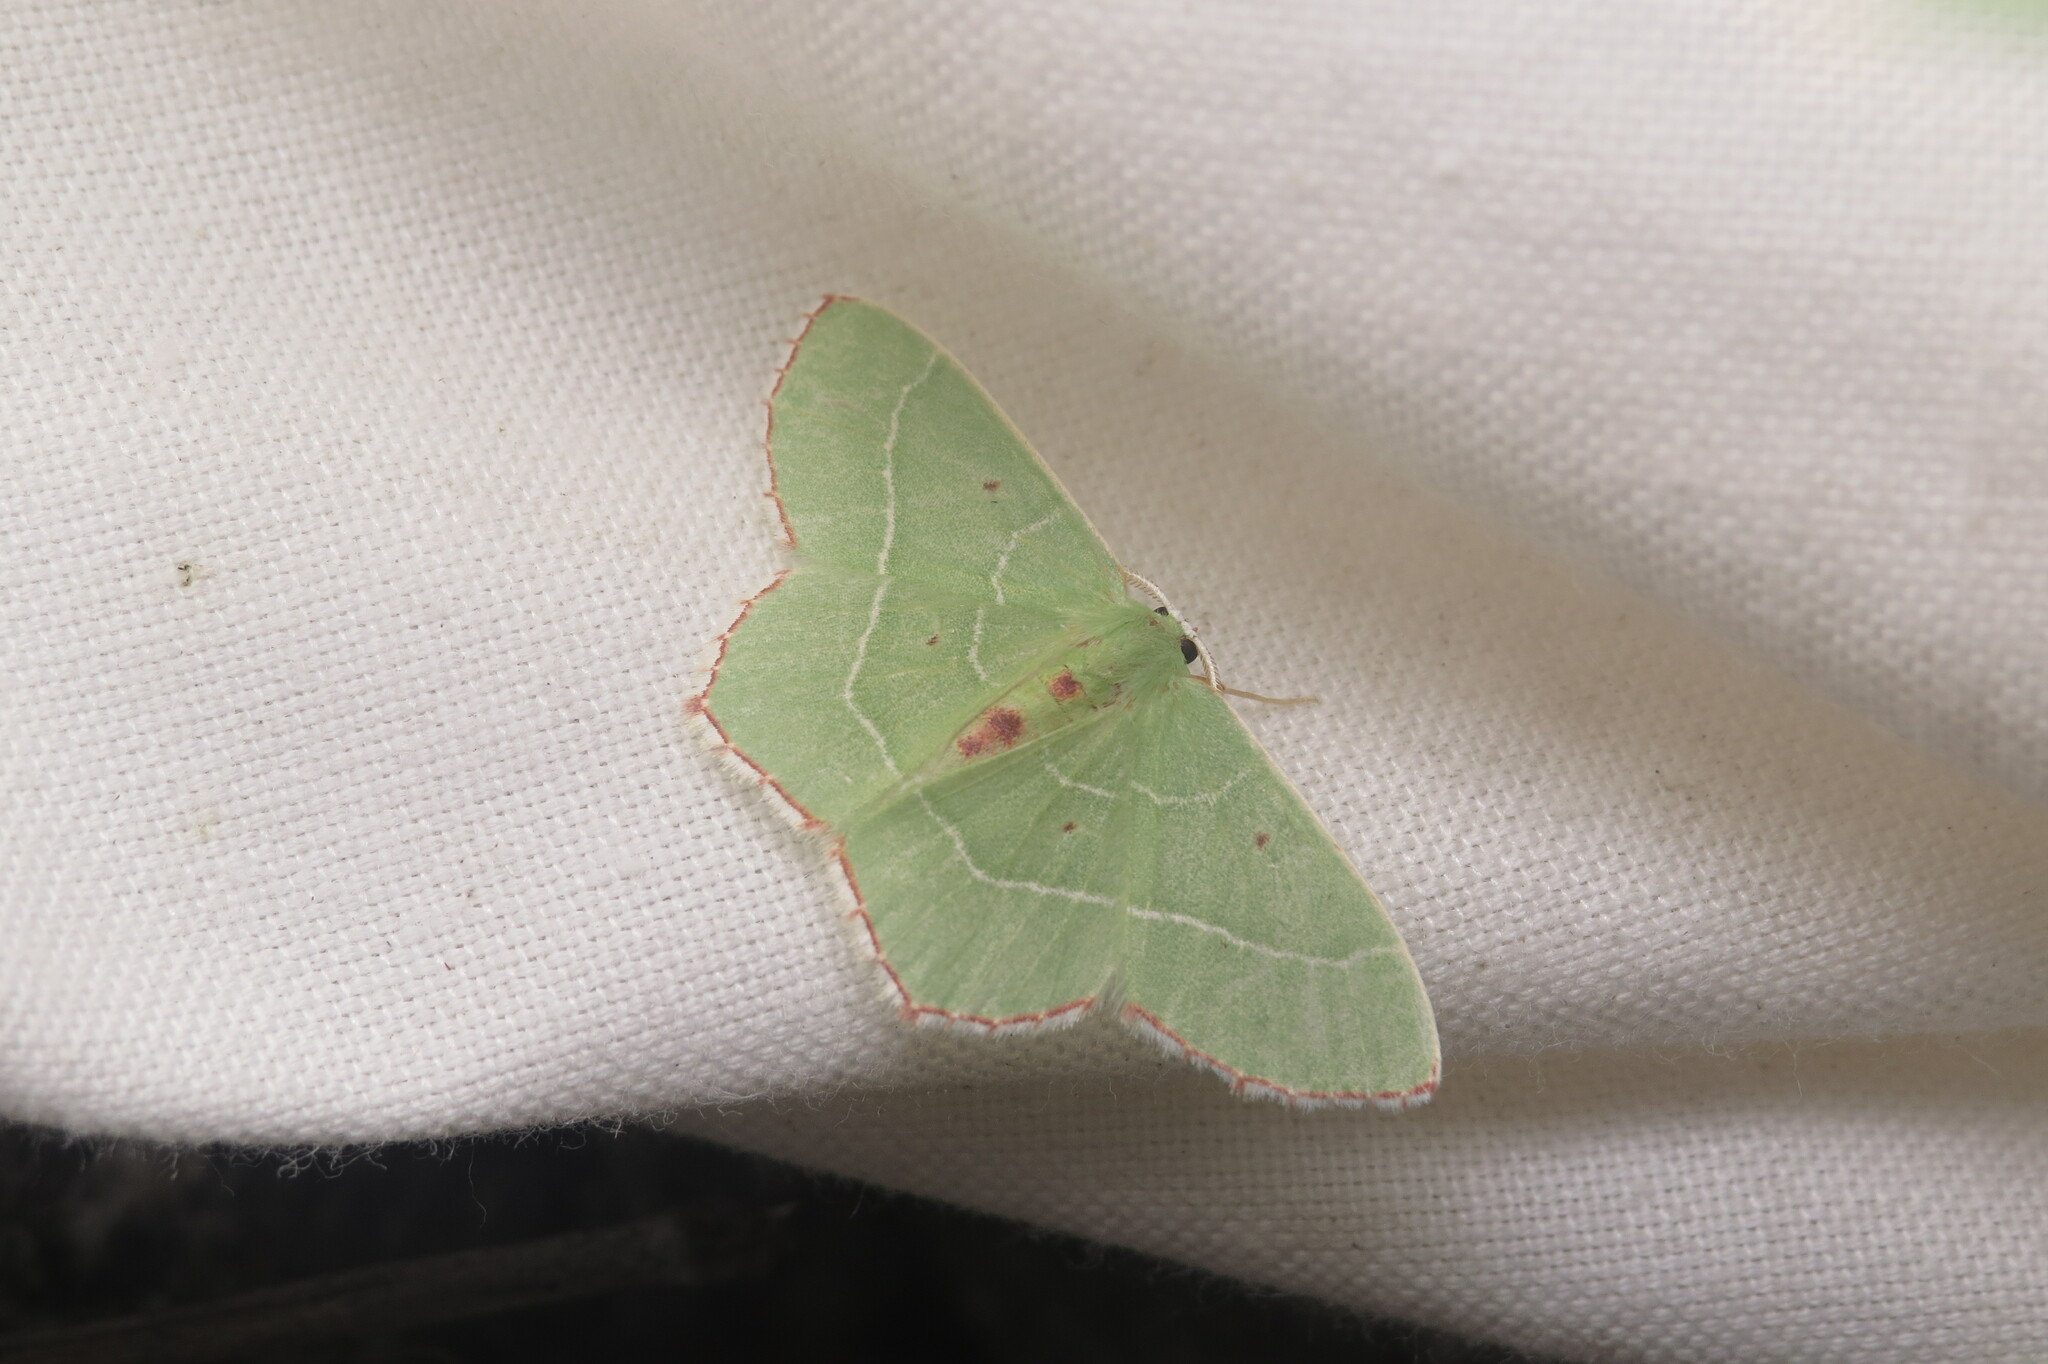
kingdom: Animalia
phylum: Arthropoda
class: Insecta
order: Lepidoptera
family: Geometridae
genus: Nemoria
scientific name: Nemoria saturiba
